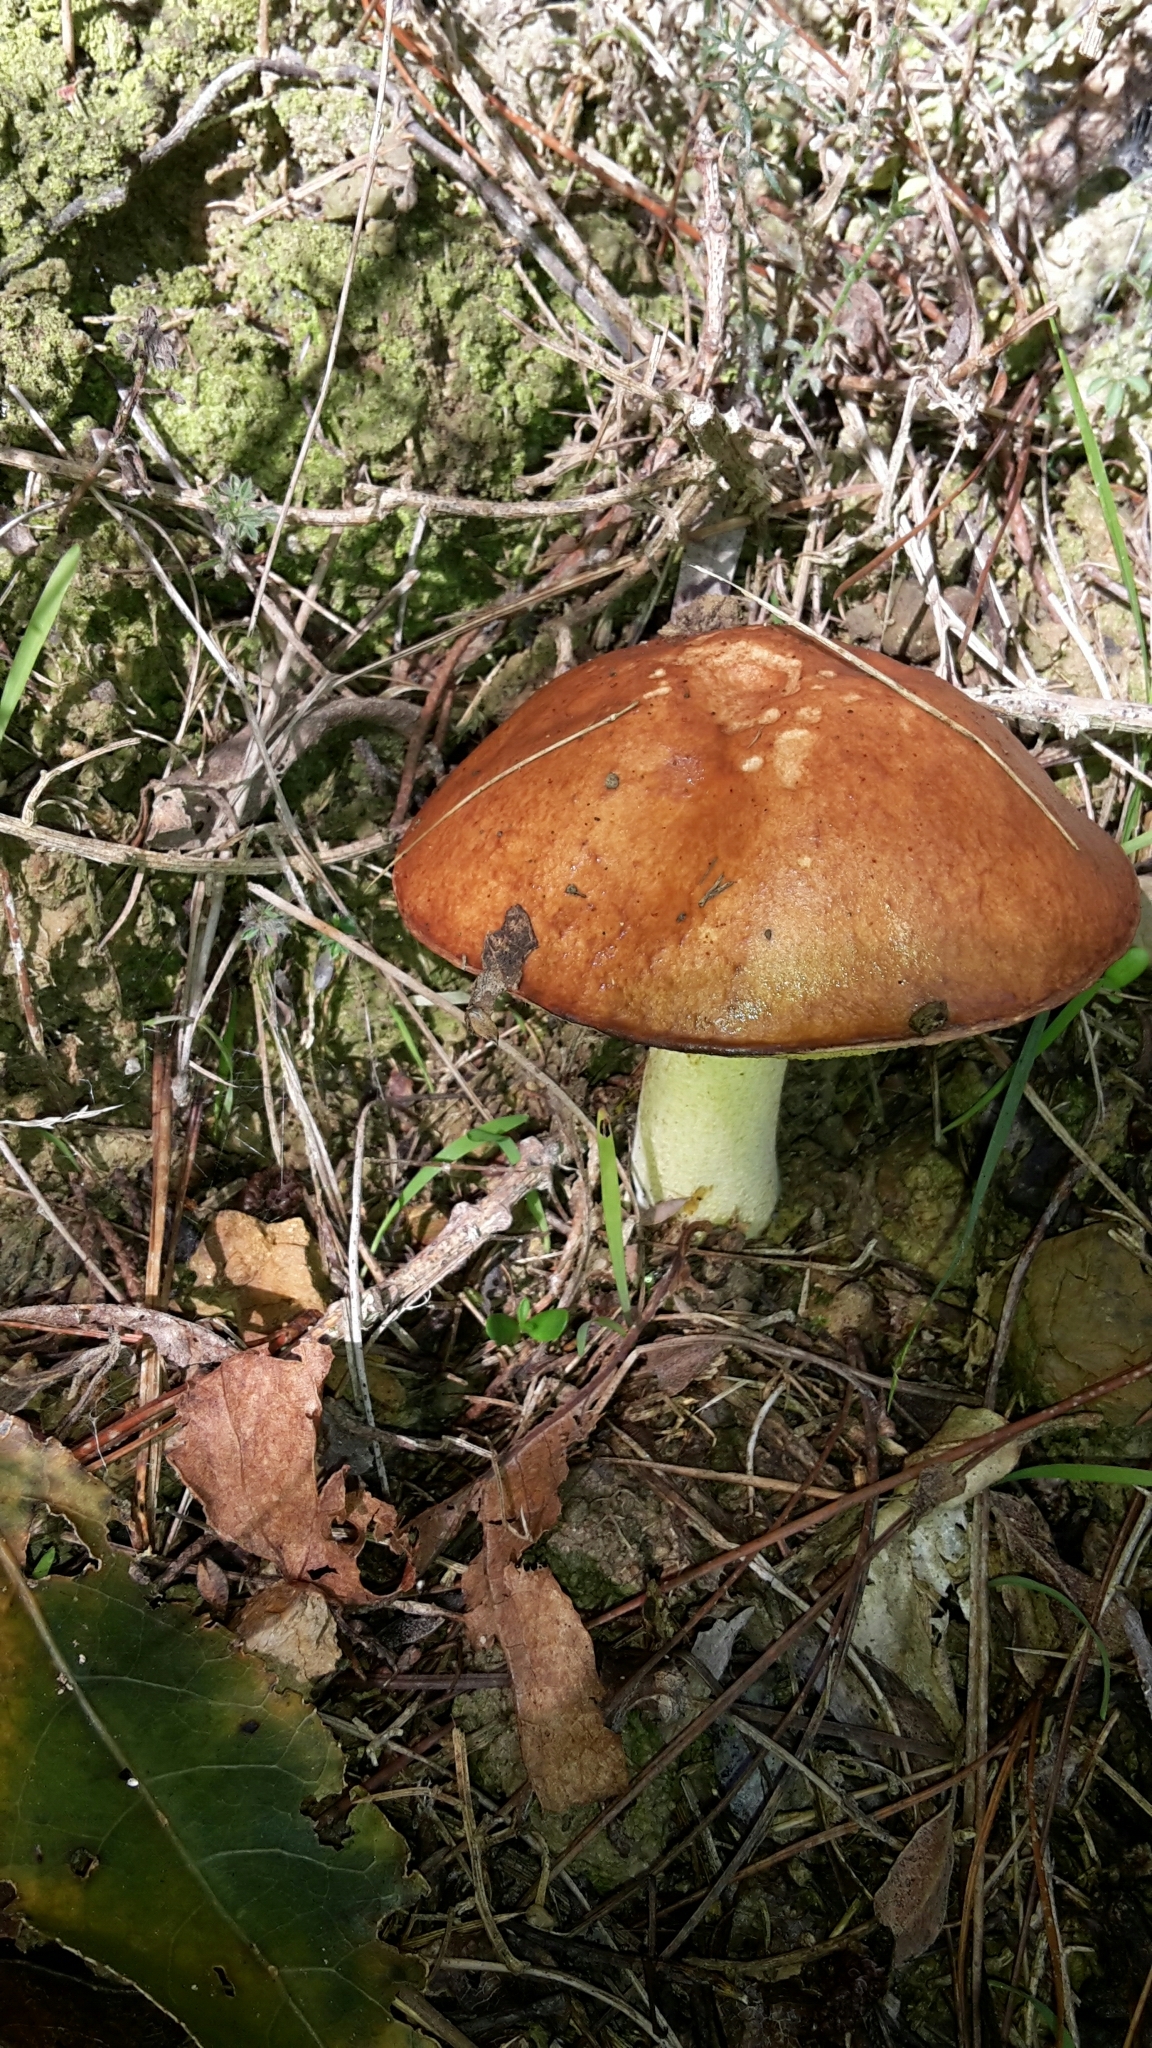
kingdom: Fungi
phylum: Basidiomycota
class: Agaricomycetes
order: Boletales
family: Suillaceae
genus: Suillus
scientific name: Suillus granulatus
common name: Weeping bolete
